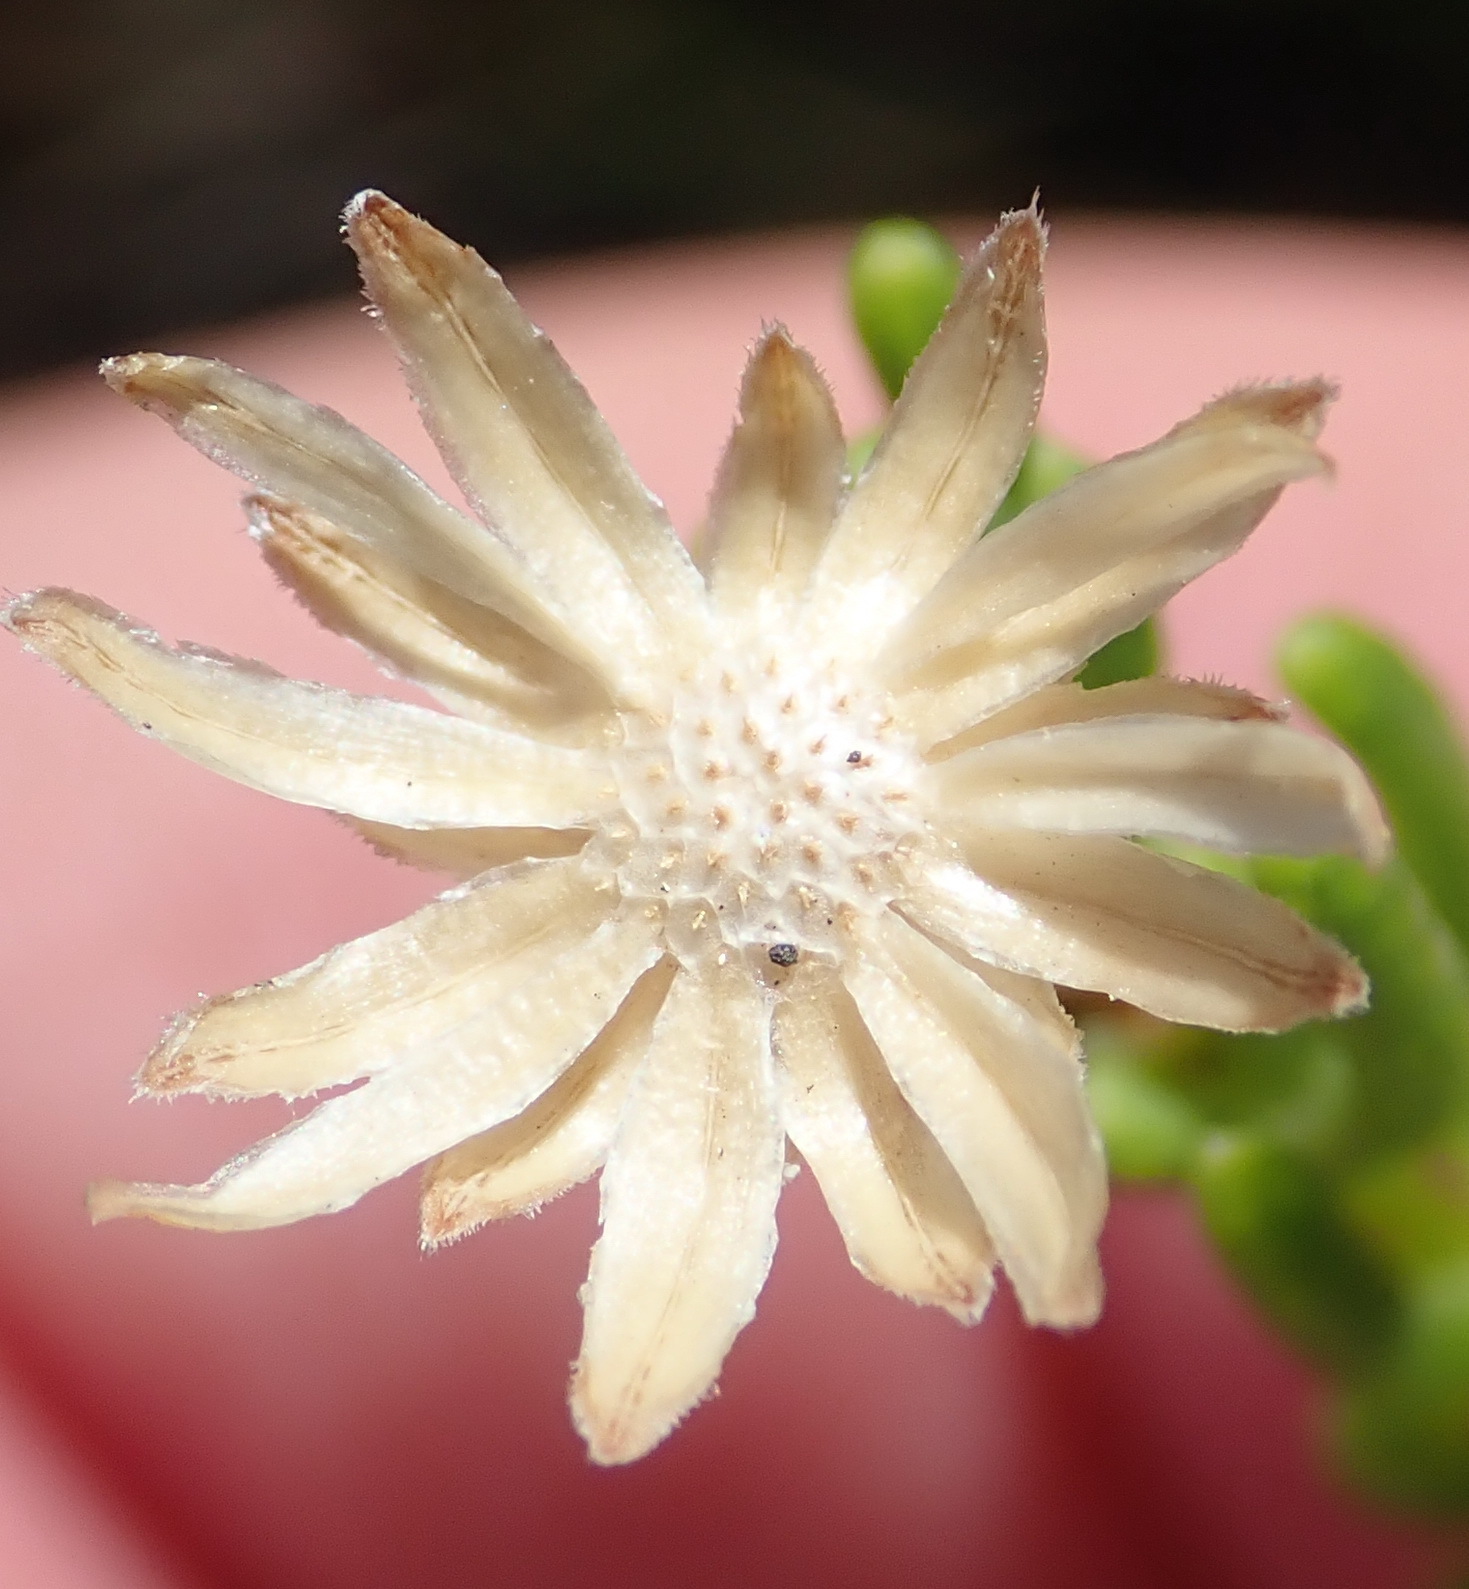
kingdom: Plantae
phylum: Tracheophyta
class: Magnoliopsida
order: Asterales
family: Asteraceae
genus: Felicia
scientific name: Felicia oleosa
